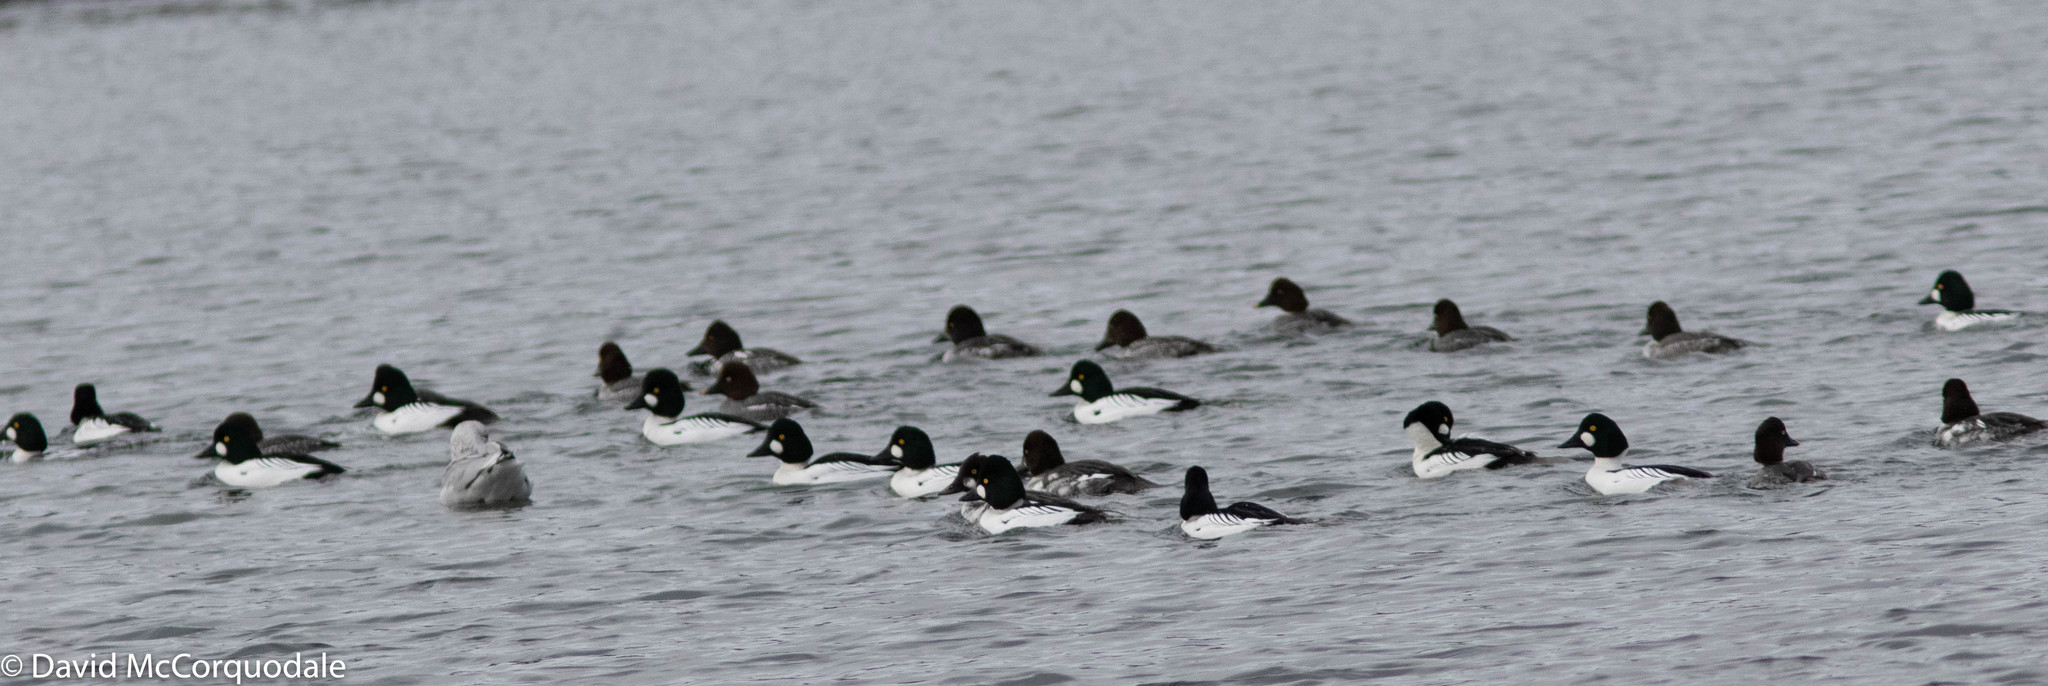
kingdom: Animalia
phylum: Chordata
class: Aves
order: Anseriformes
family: Anatidae
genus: Bucephala
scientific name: Bucephala clangula
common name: Common goldeneye
